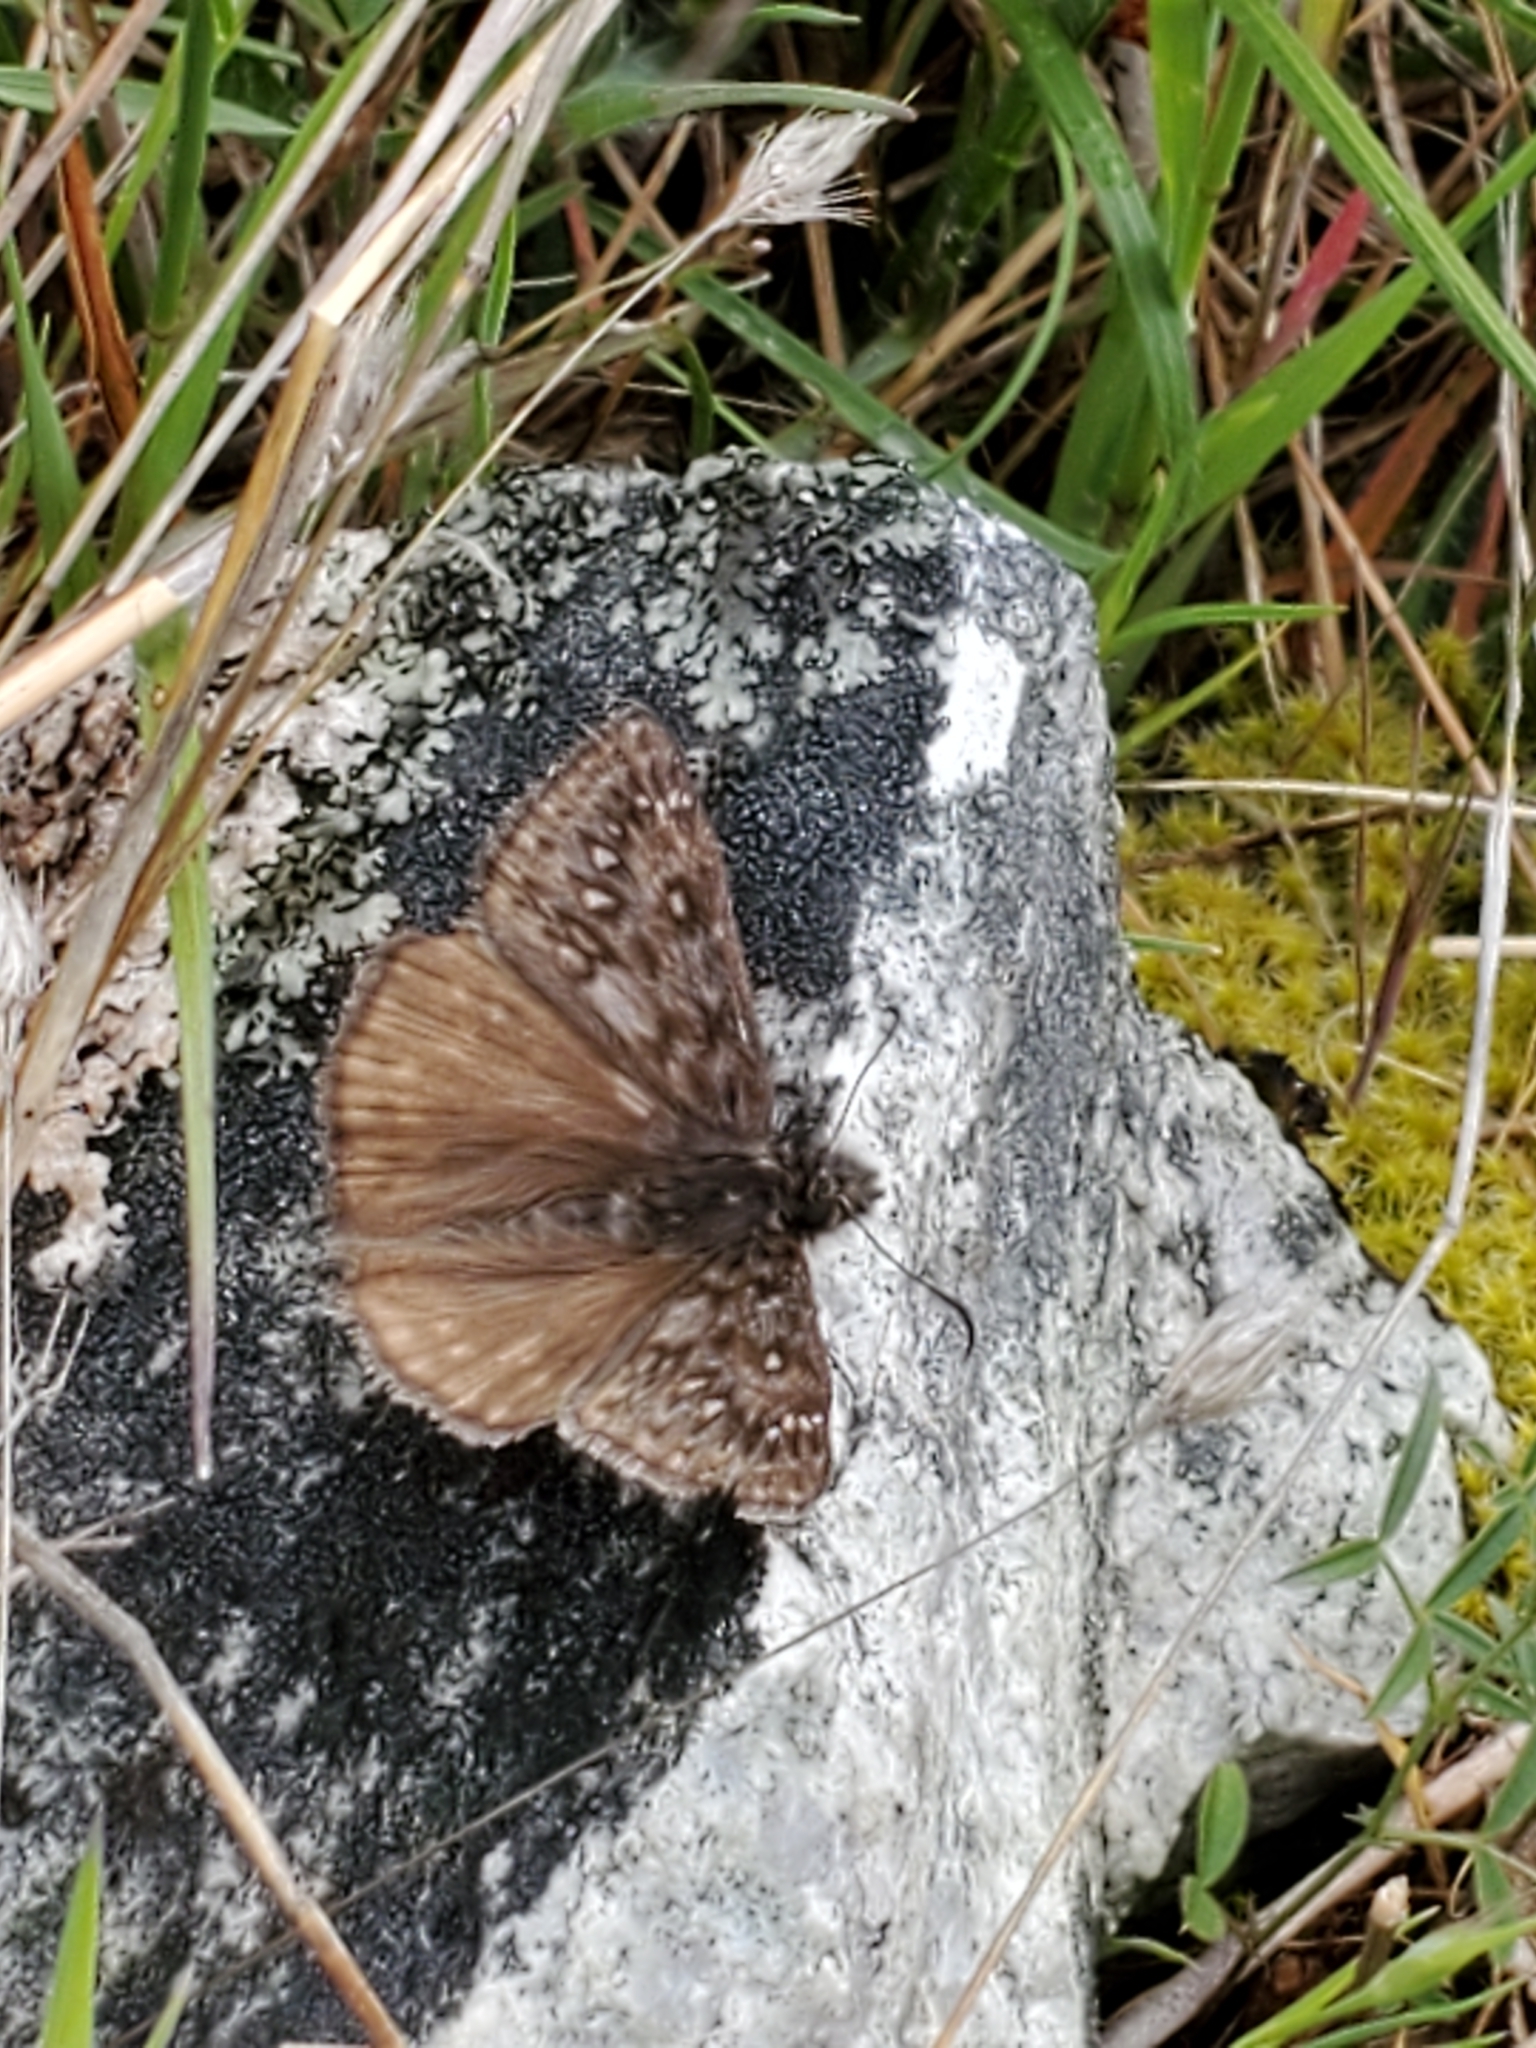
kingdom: Animalia
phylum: Arthropoda
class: Insecta
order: Lepidoptera
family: Hesperiidae
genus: Erynnis
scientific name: Erynnis propertius
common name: Propertius duskywing
